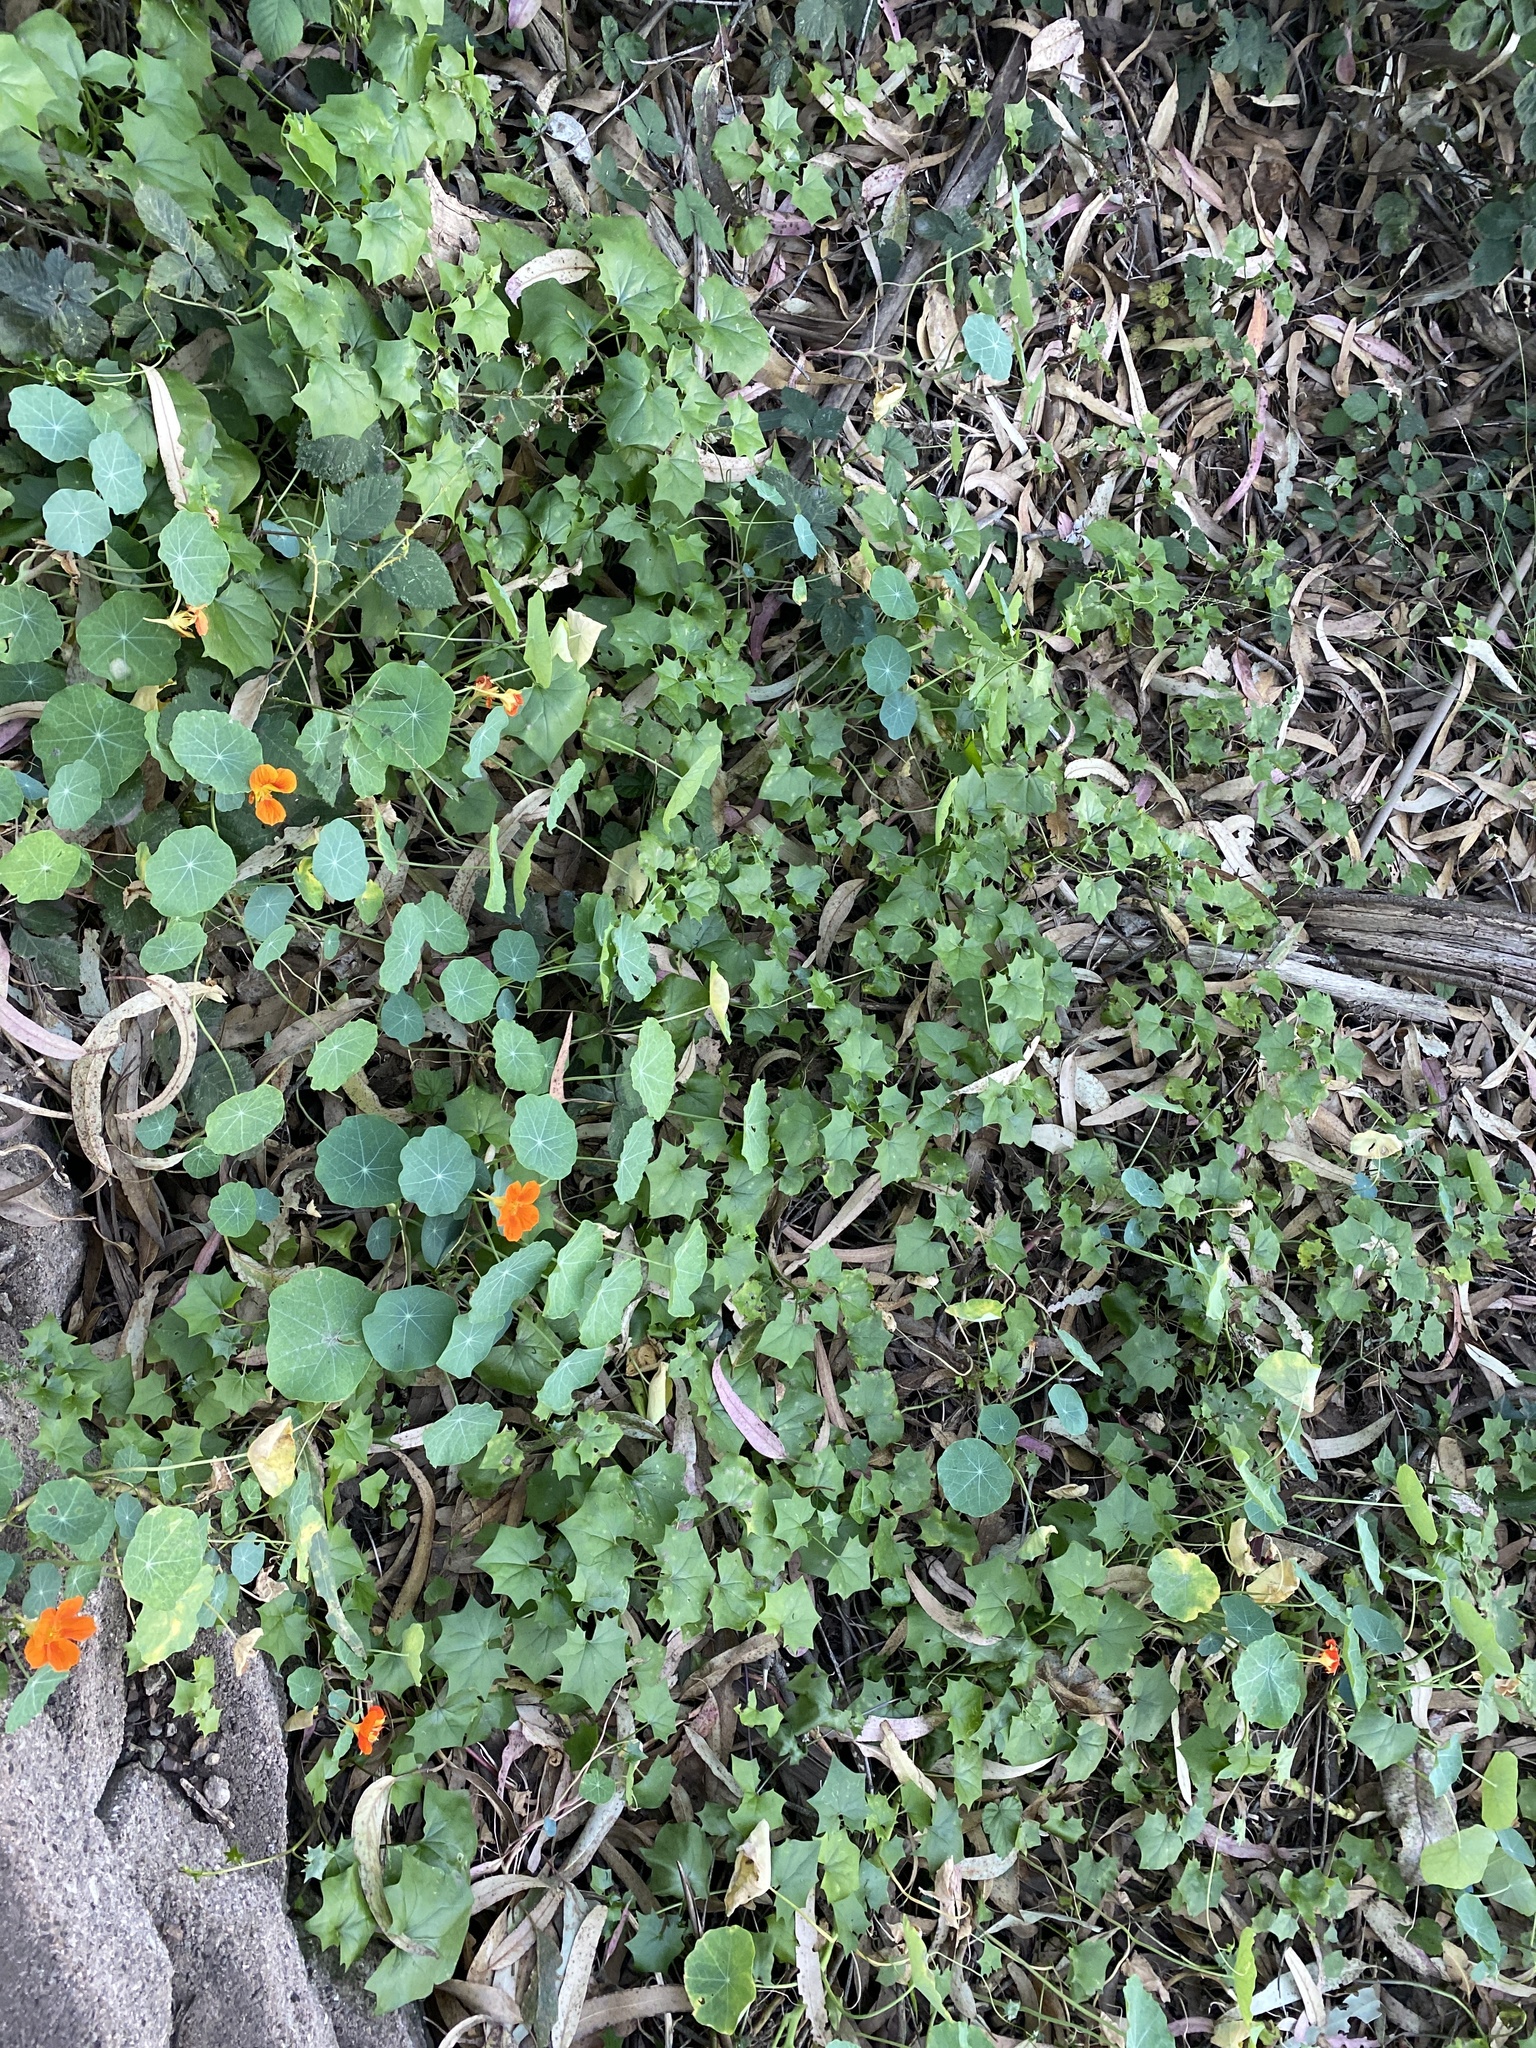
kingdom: Plantae
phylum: Tracheophyta
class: Magnoliopsida
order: Brassicales
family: Tropaeolaceae
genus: Tropaeolum
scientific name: Tropaeolum majus
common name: Nasturtium
